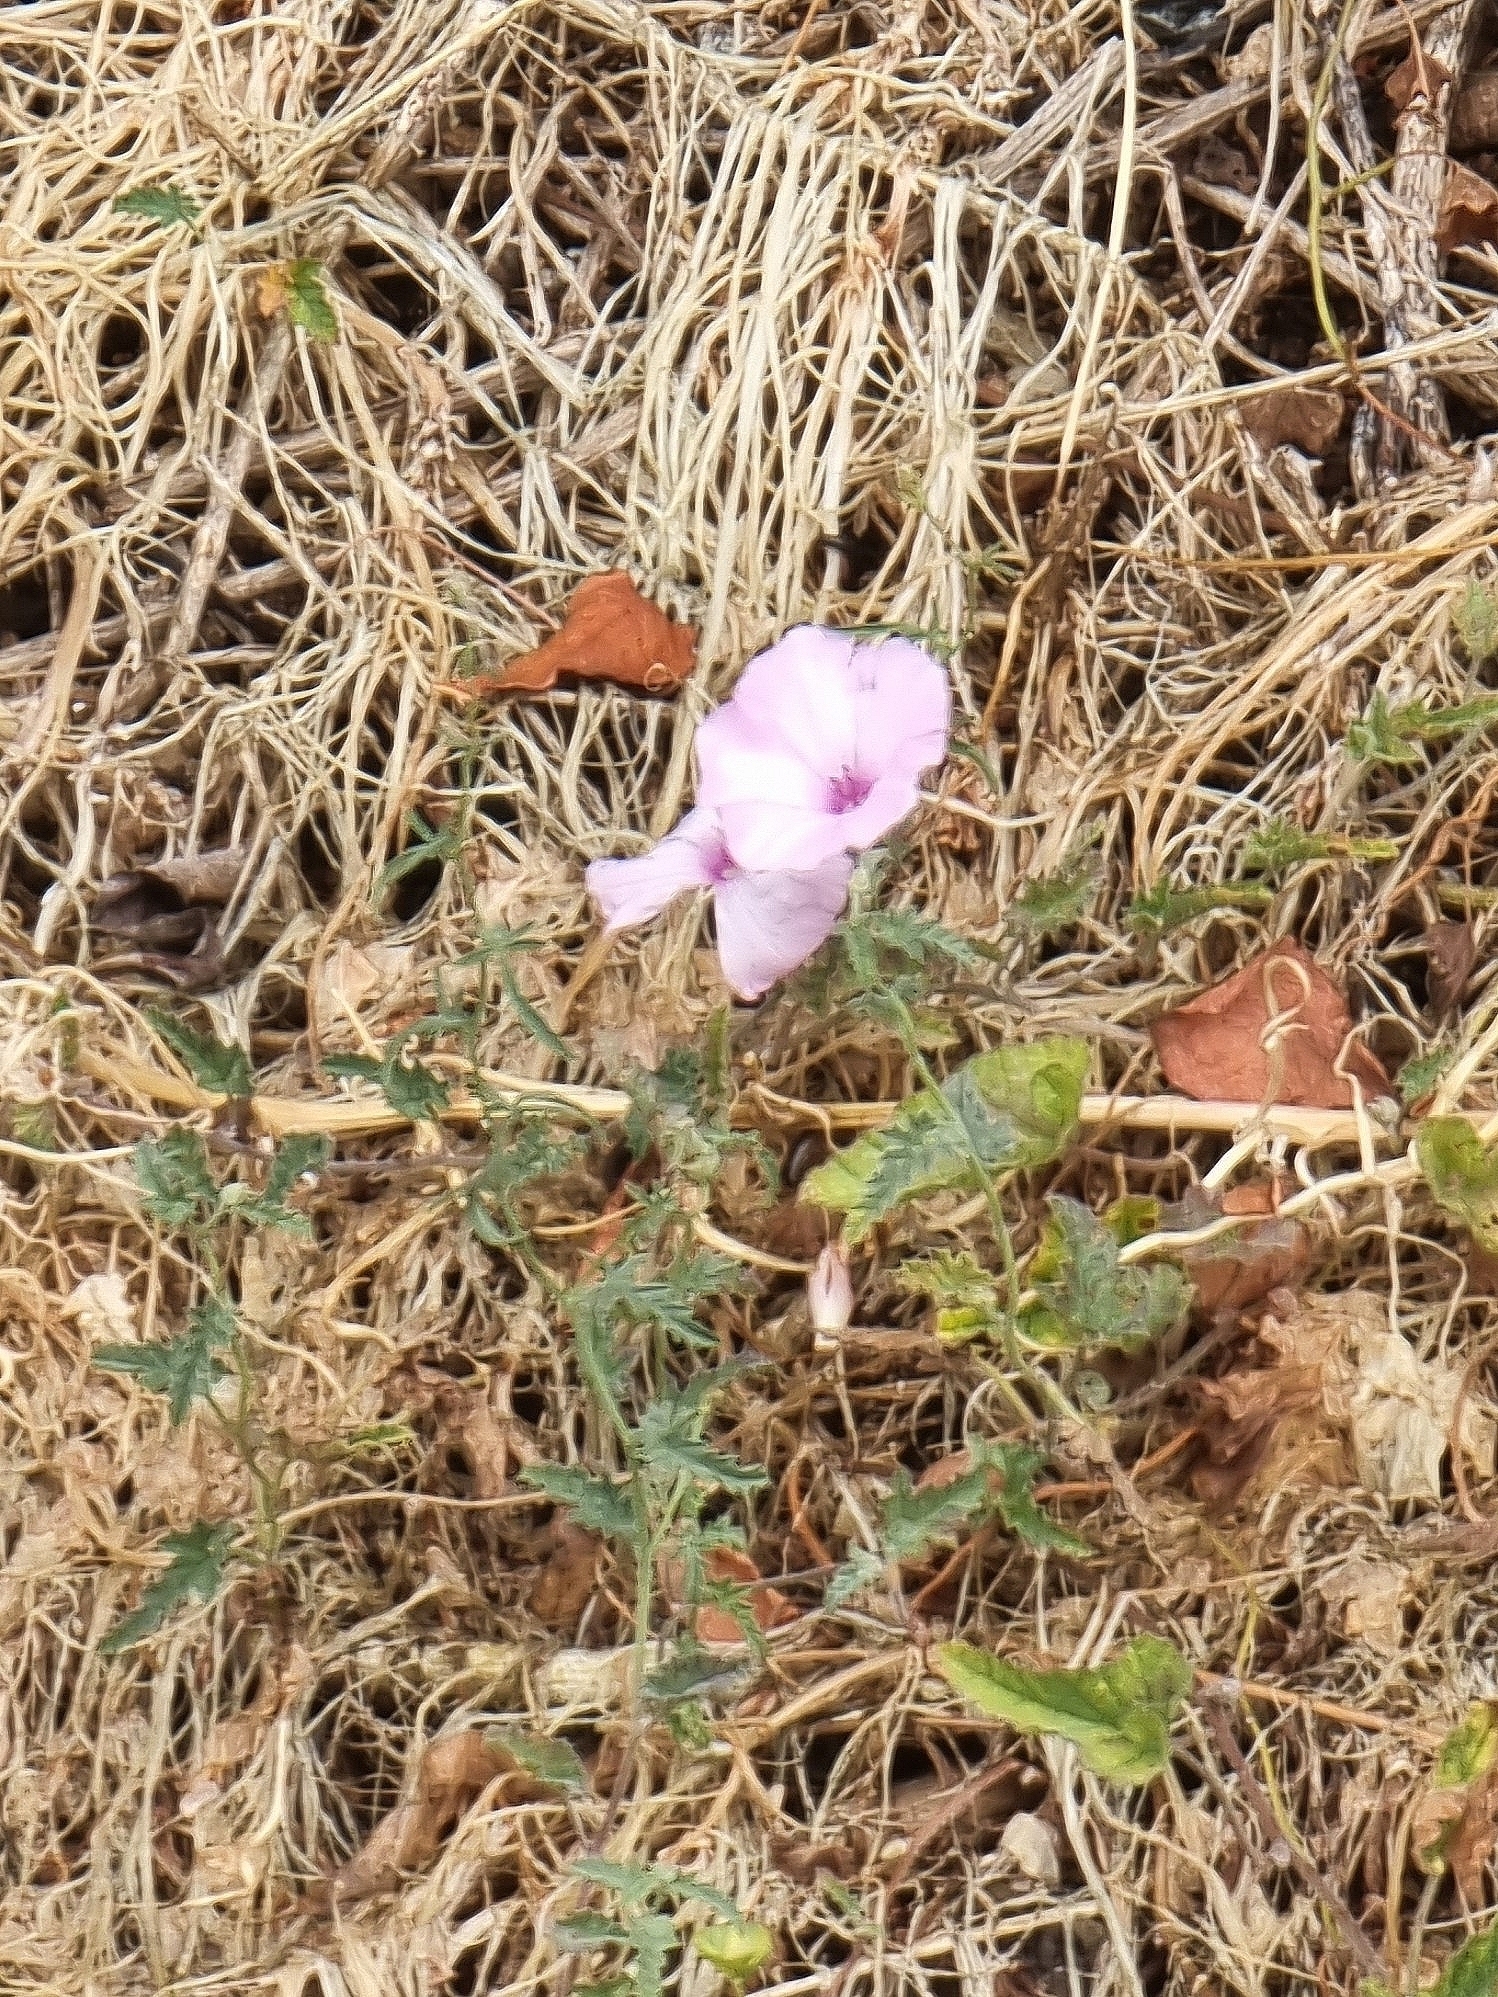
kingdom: Plantae
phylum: Tracheophyta
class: Magnoliopsida
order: Solanales
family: Convolvulaceae
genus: Convolvulus
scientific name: Convolvulus althaeoides
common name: Mallow bindweed
